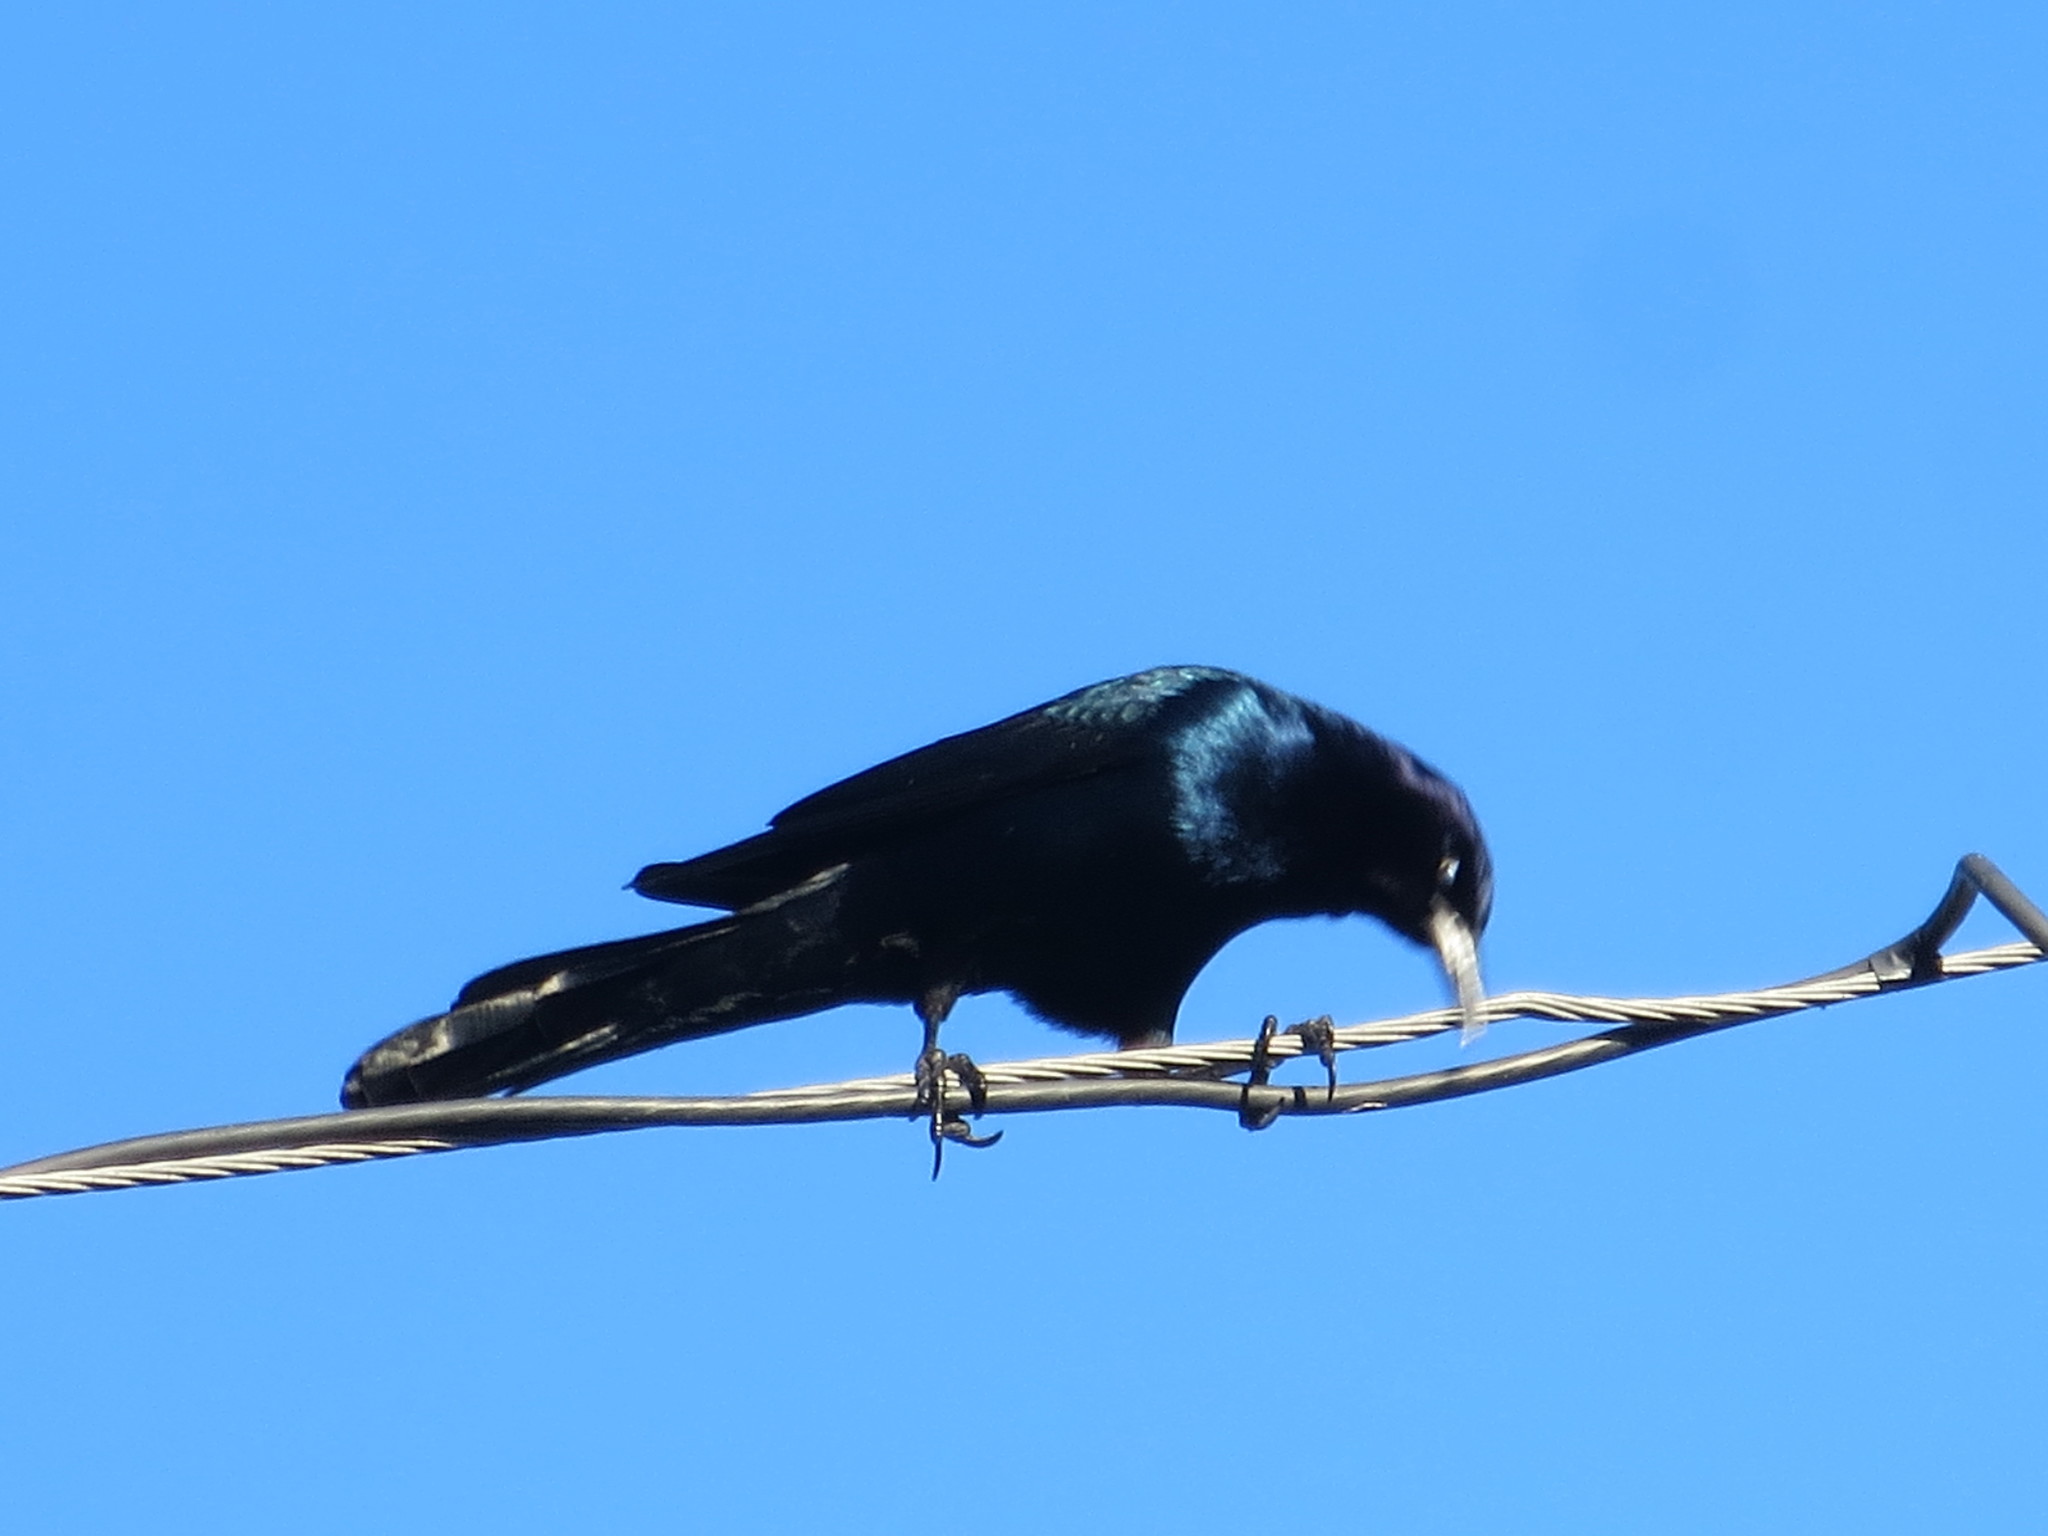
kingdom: Animalia
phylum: Chordata
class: Aves
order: Passeriformes
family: Icteridae
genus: Quiscalus
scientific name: Quiscalus major
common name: Boat-tailed grackle
